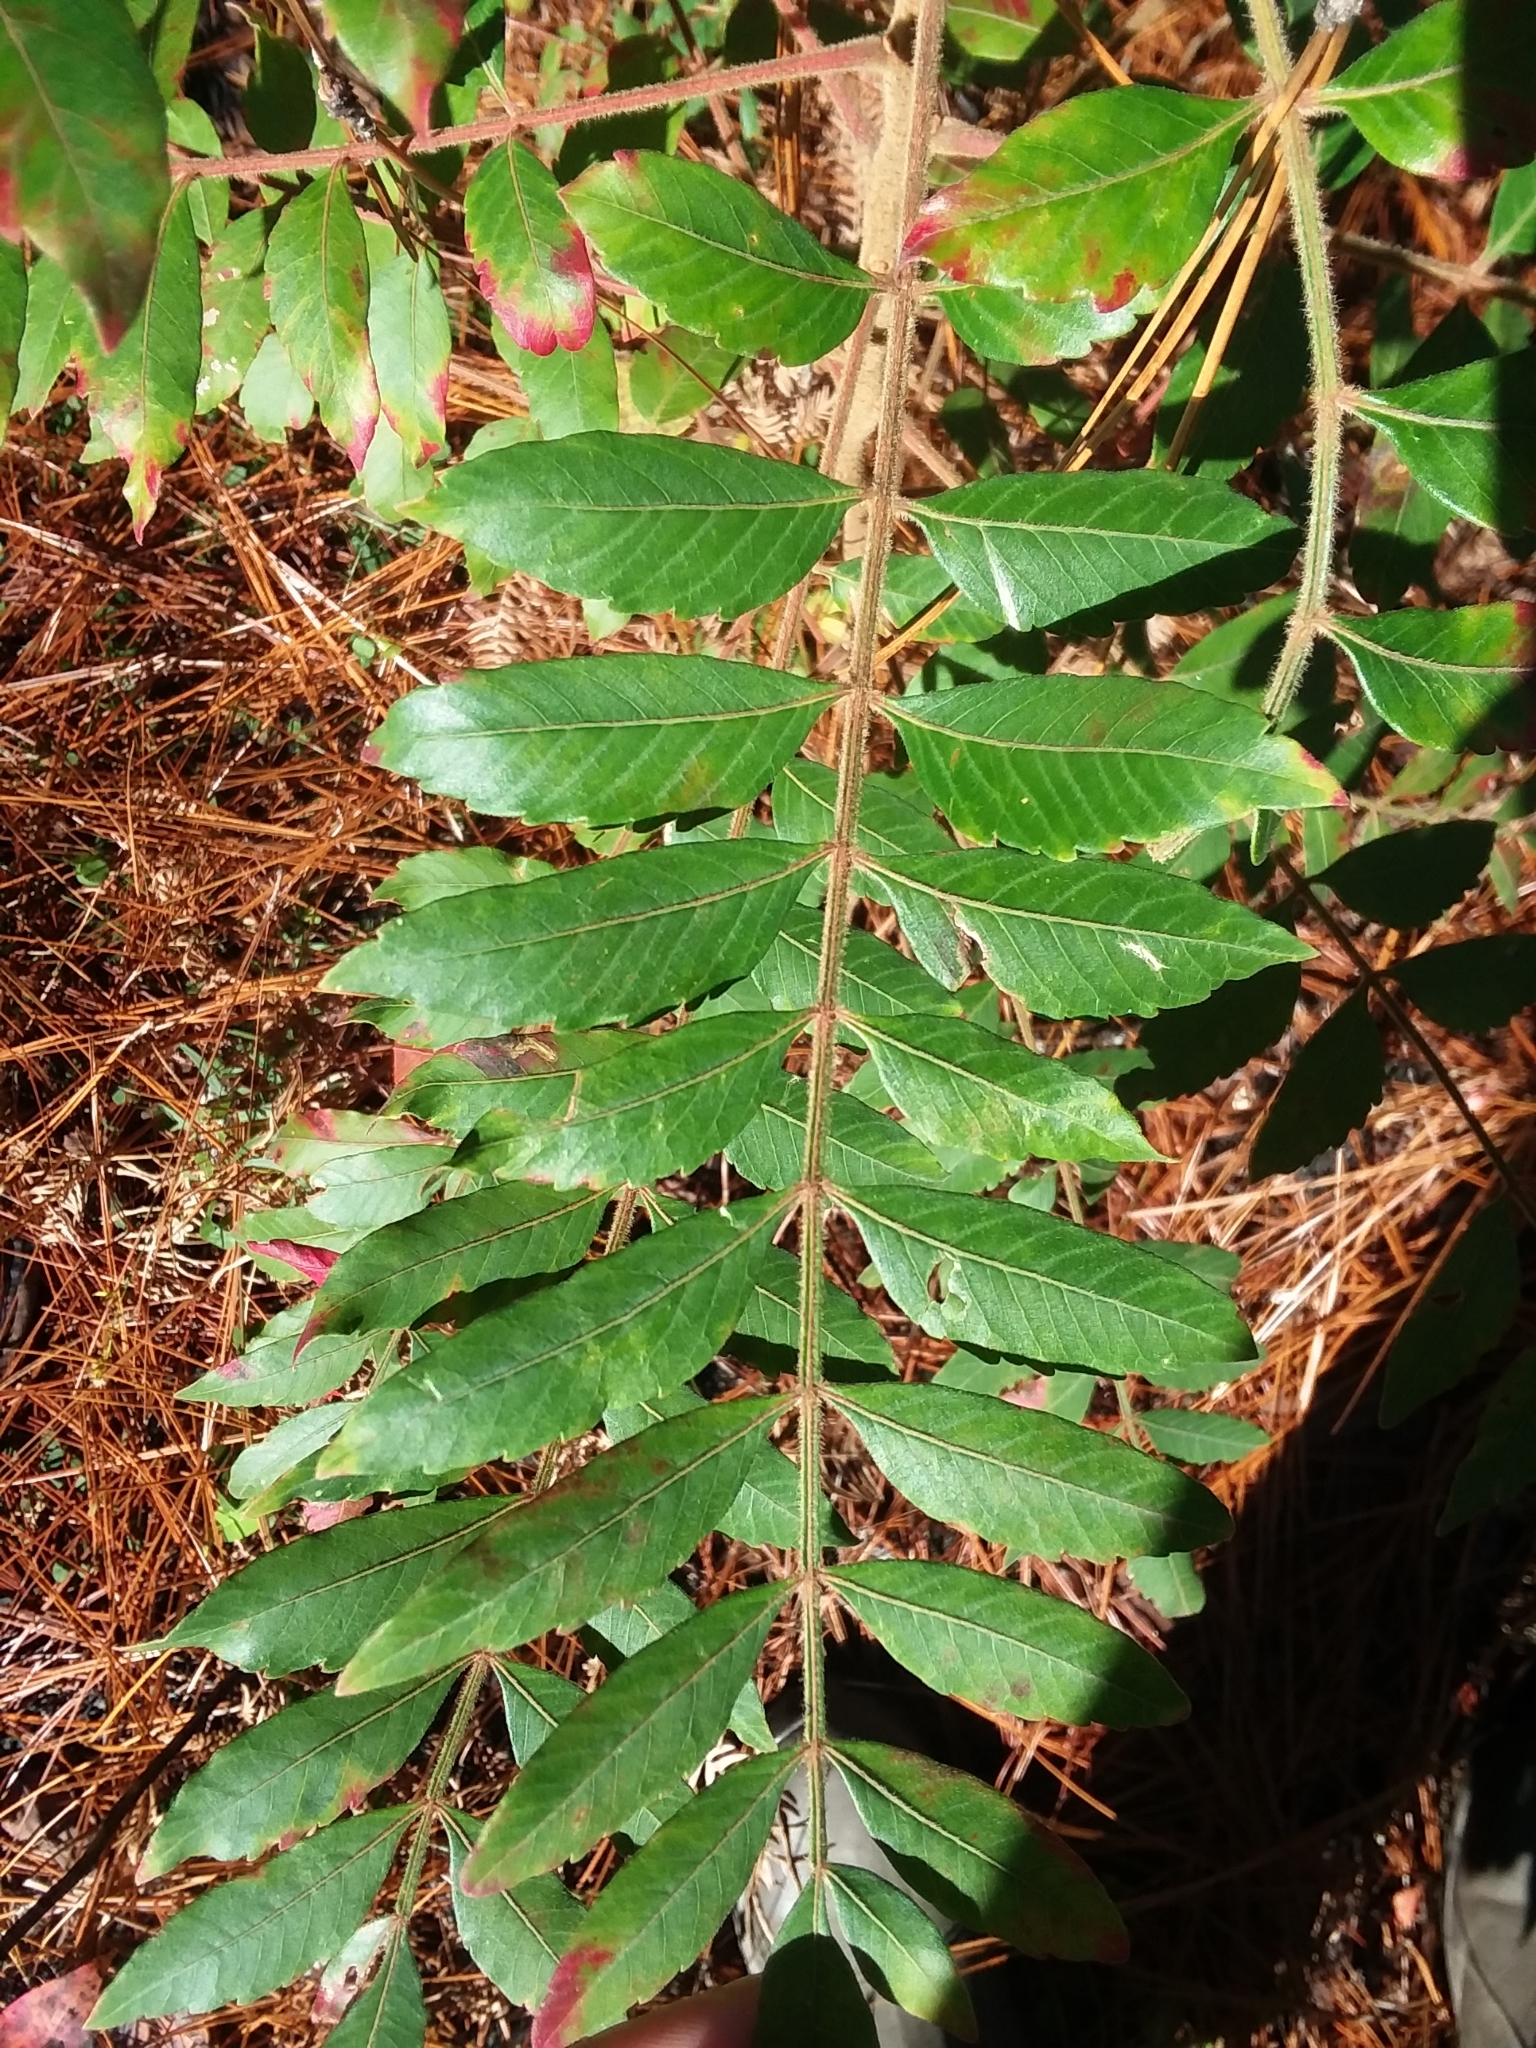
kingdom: Plantae
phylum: Tracheophyta
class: Magnoliopsida
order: Sapindales
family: Anacardiaceae
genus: Rhus
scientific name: Rhus copallina
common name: Shining sumac
